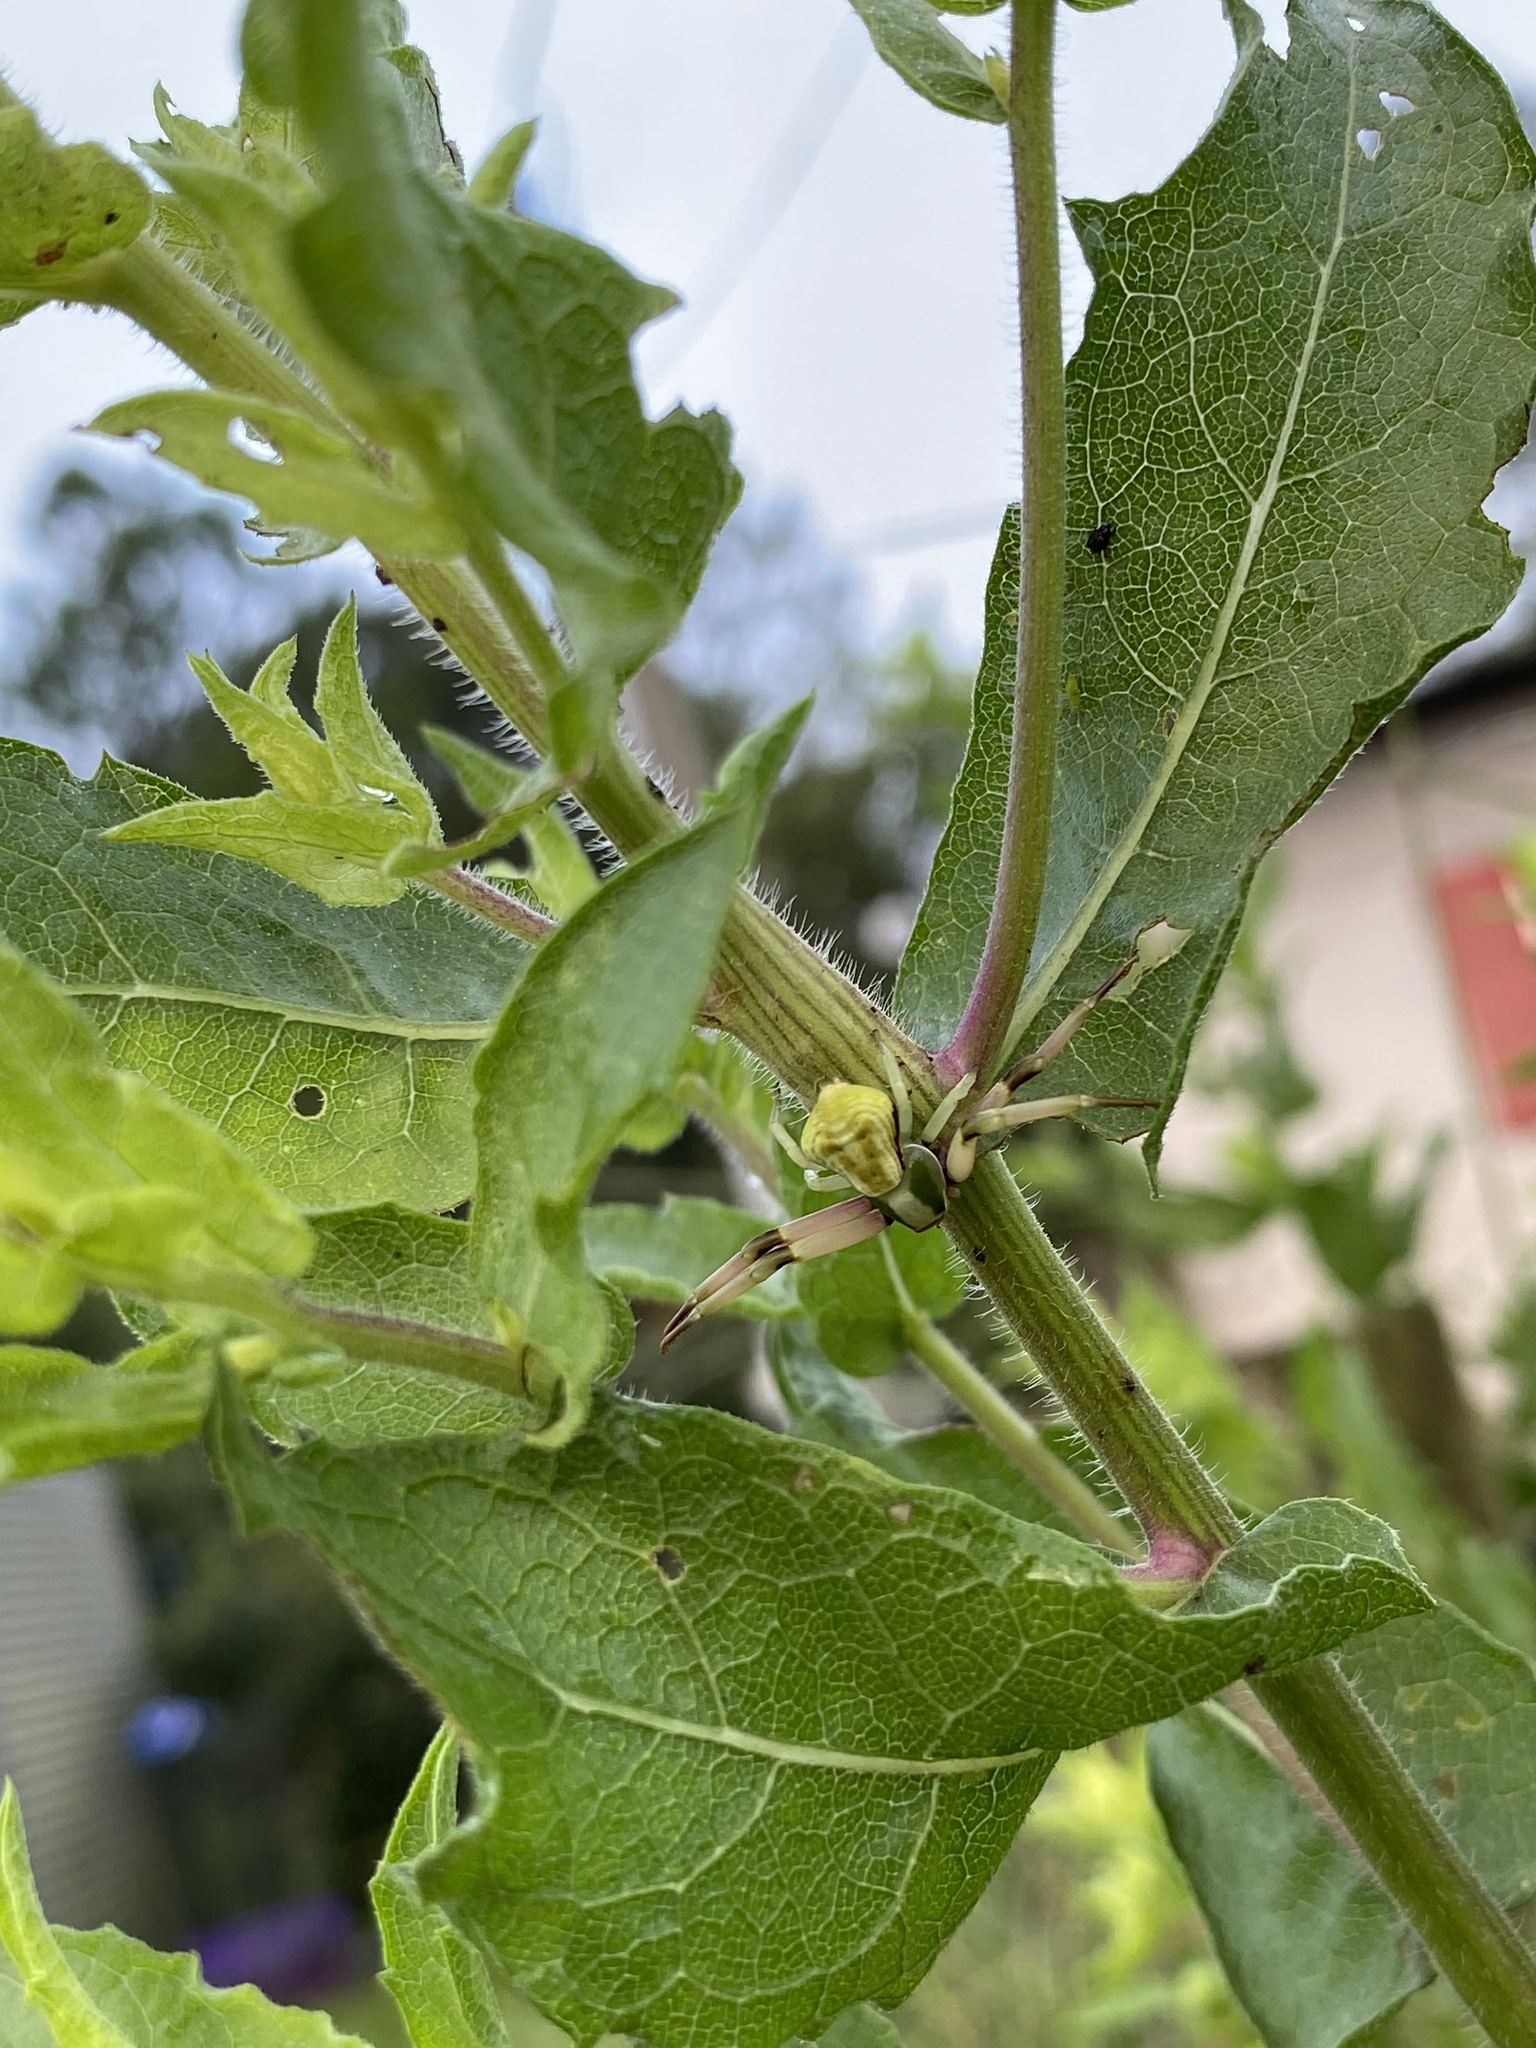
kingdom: Animalia
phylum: Arthropoda
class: Arachnida
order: Araneae
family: Thomisidae
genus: Misumenoides
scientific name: Misumenoides formosipes
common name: White-banded crab spider
